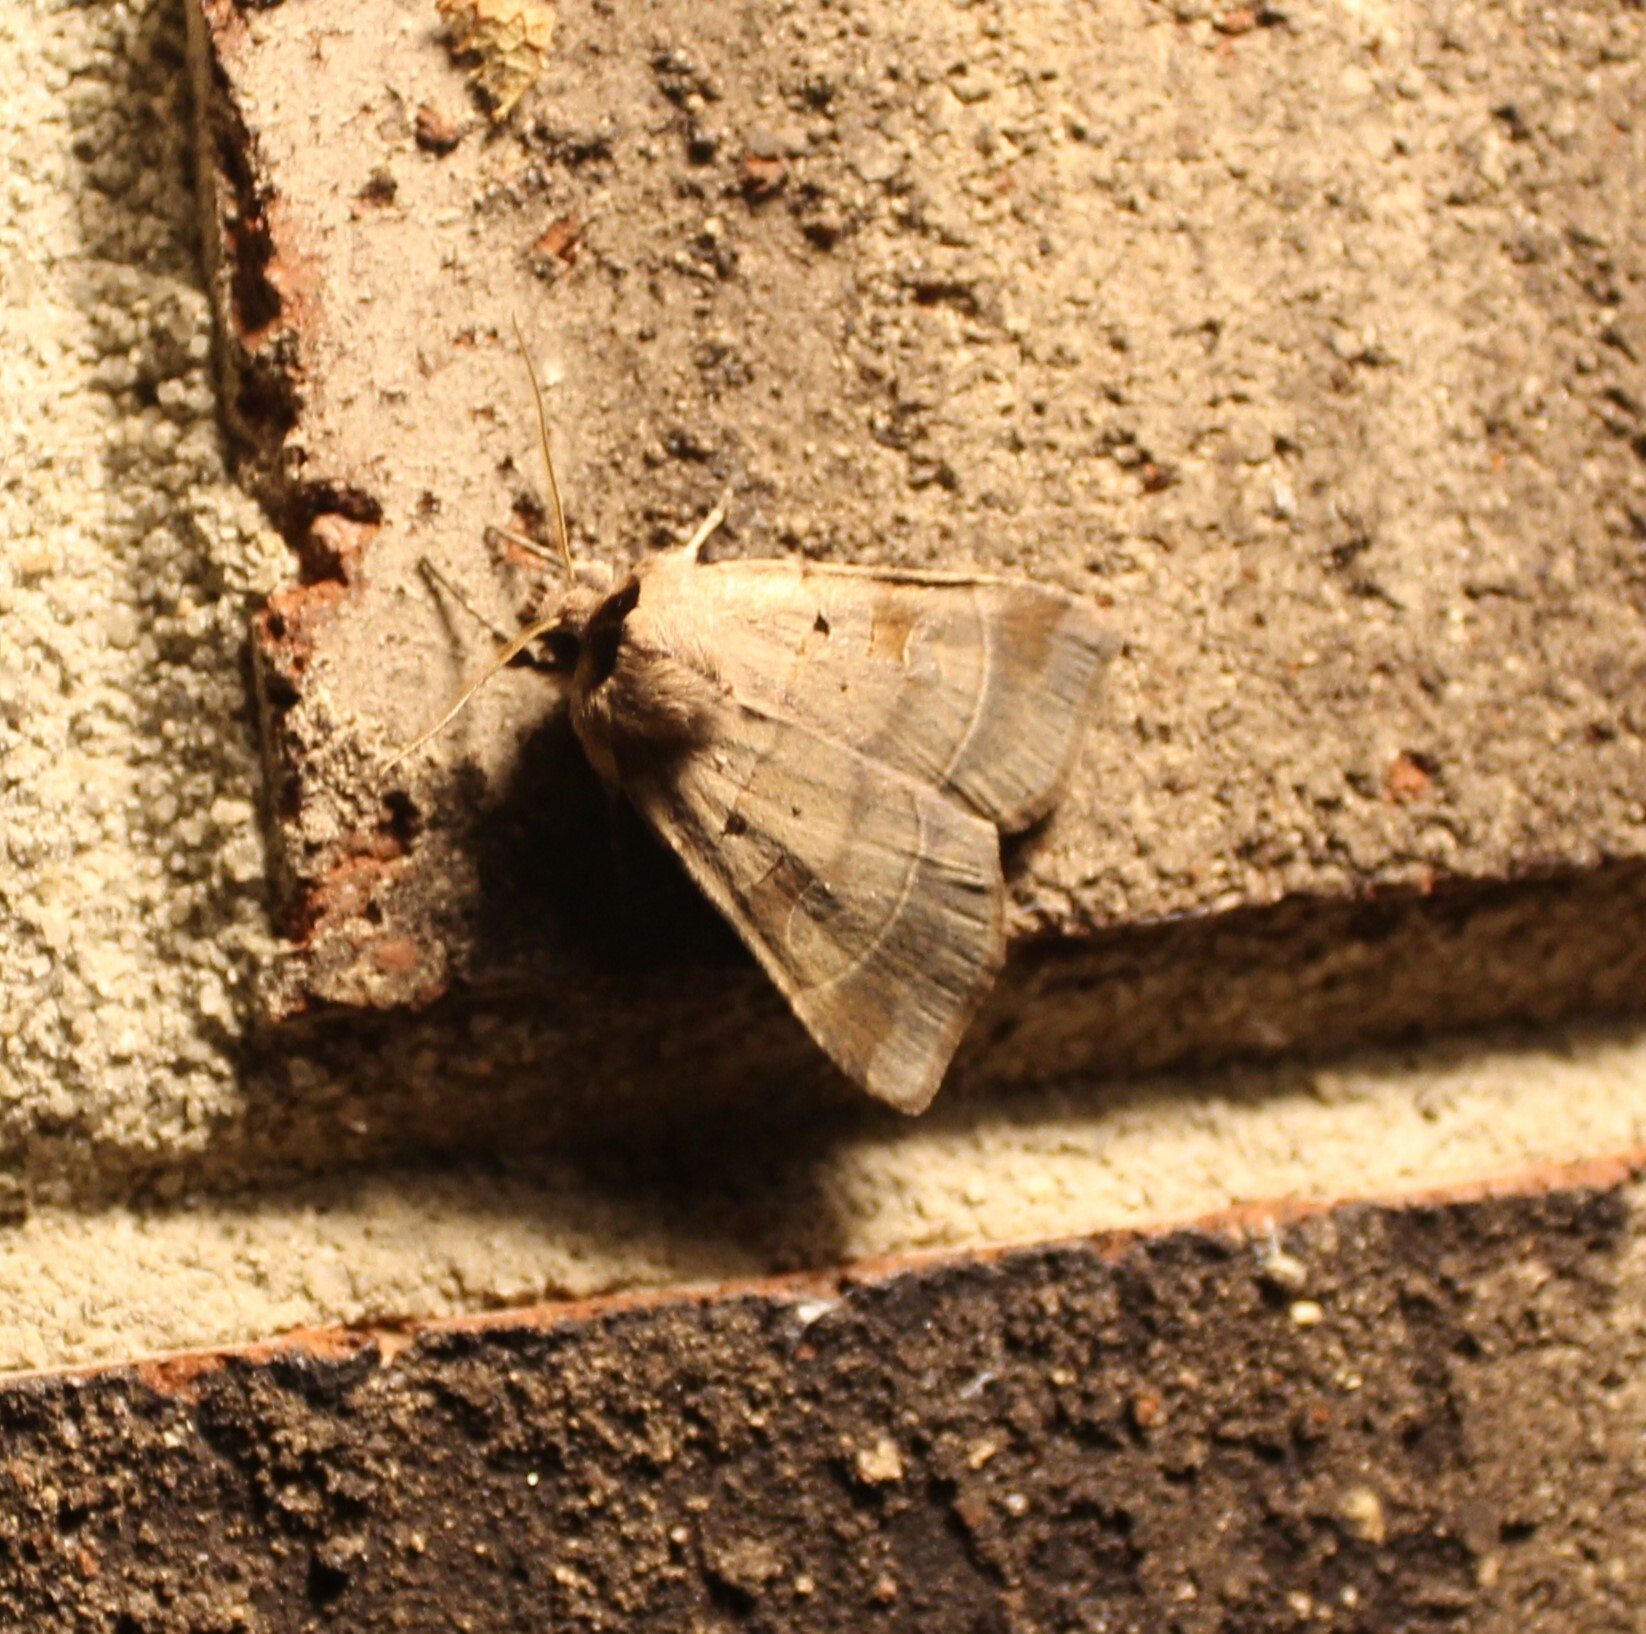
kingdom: Animalia
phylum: Arthropoda
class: Insecta
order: Lepidoptera
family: Noctuidae
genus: Agnorisma
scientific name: Agnorisma badinodis
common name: Pale-banded dart
